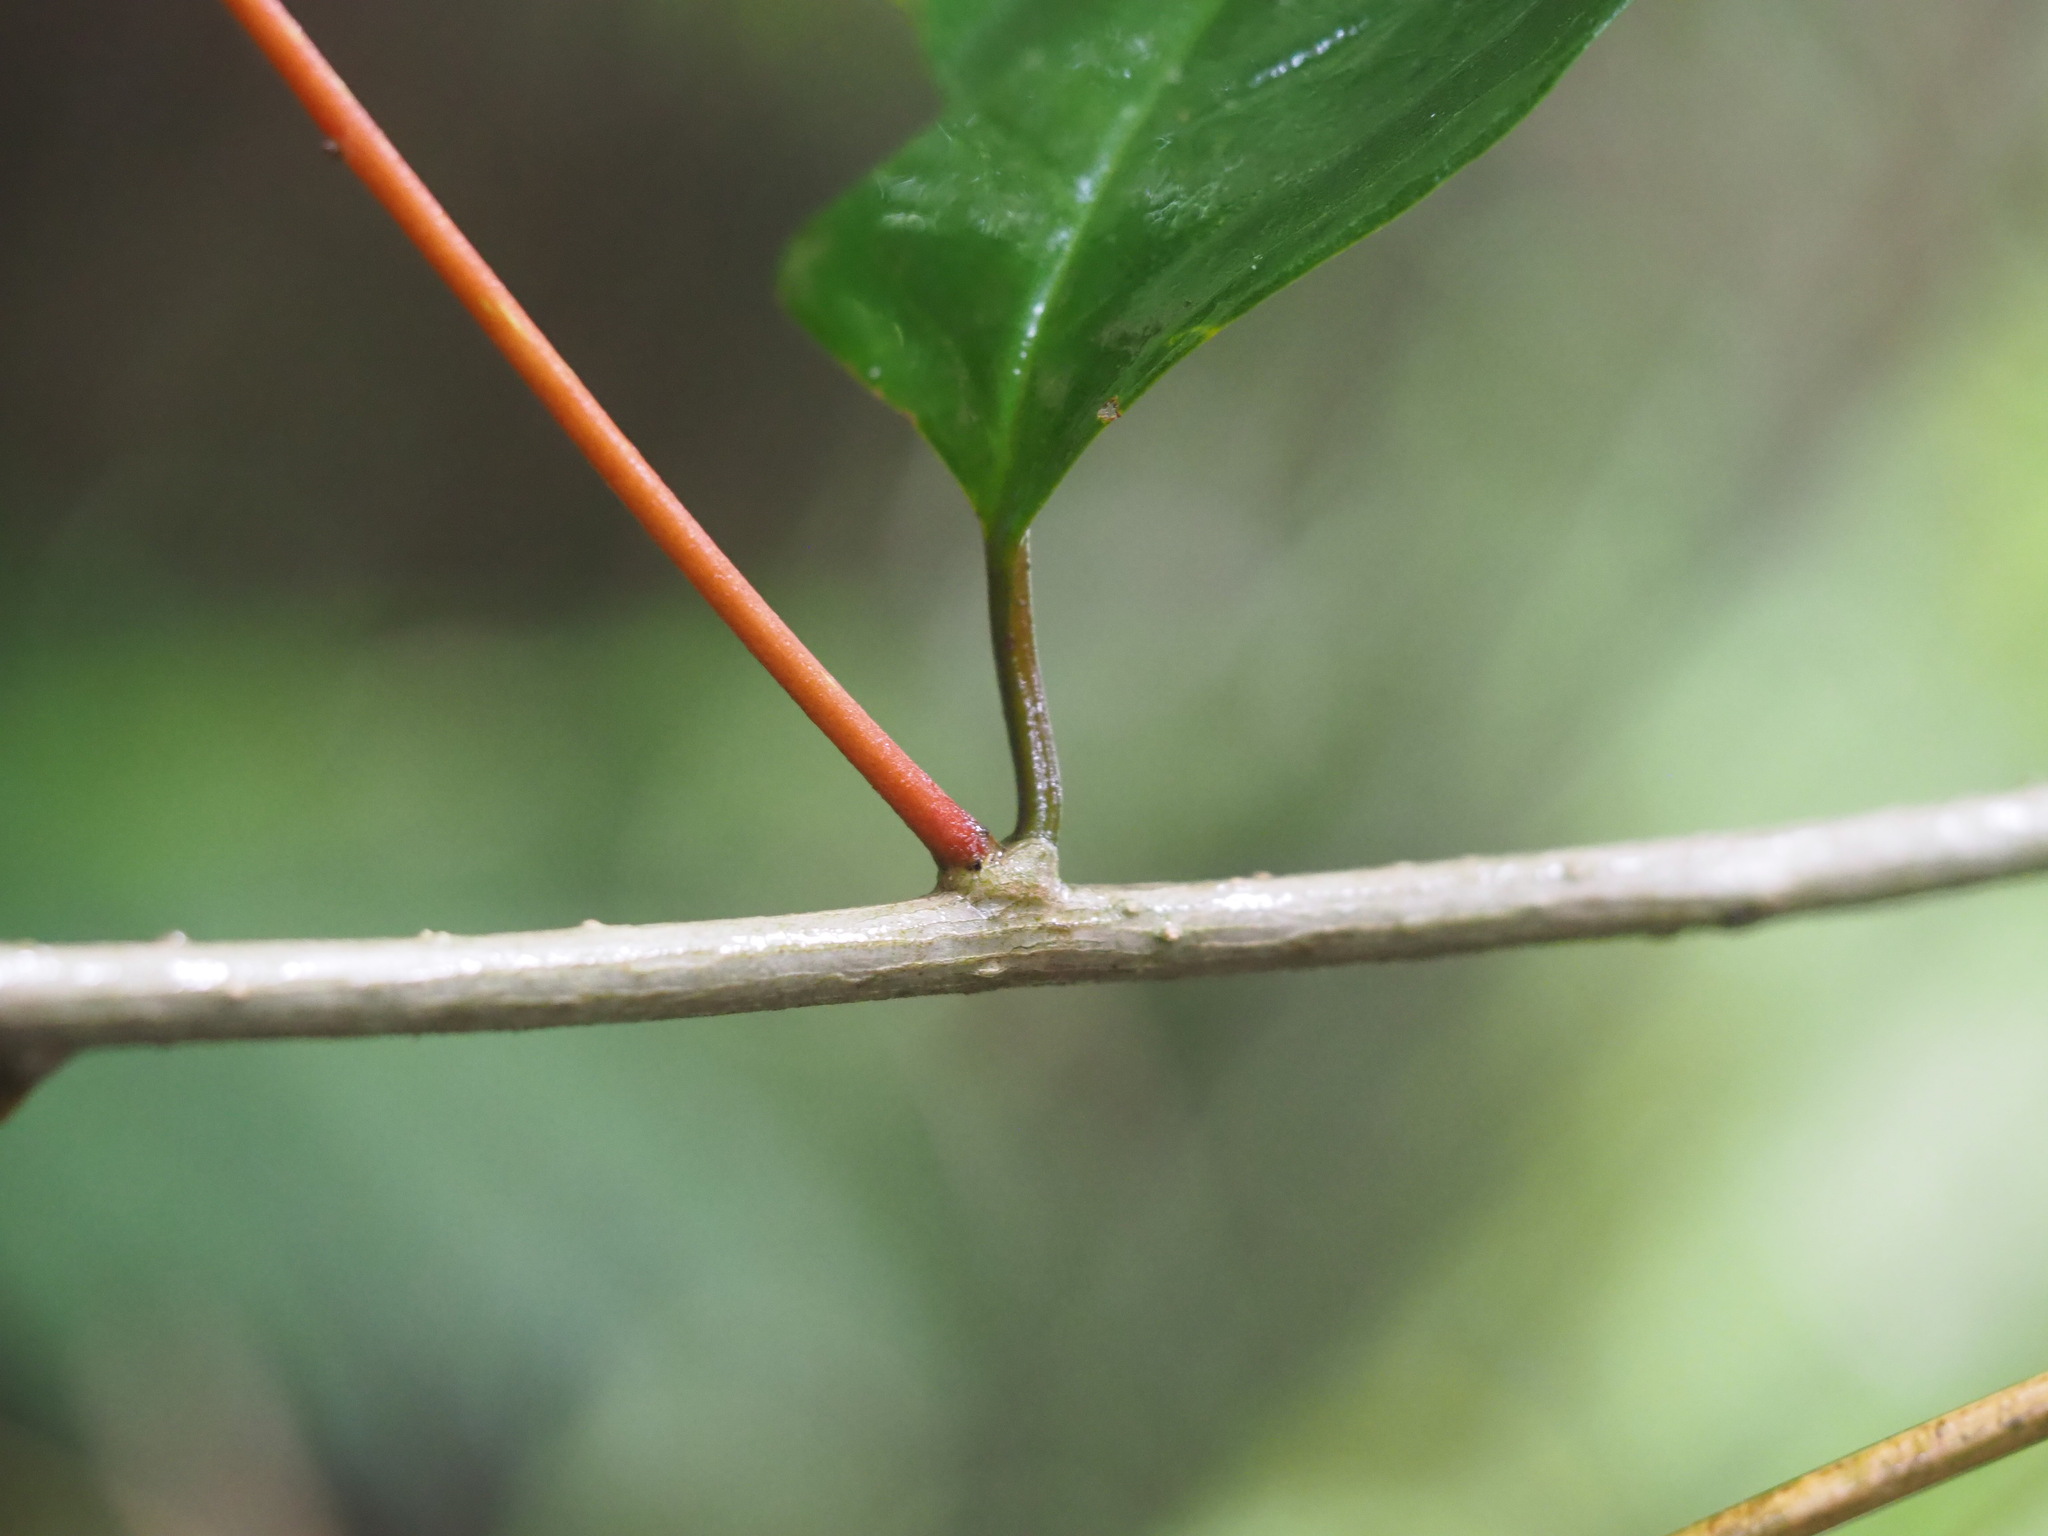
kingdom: Plantae
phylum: Tracheophyta
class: Magnoliopsida
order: Solanales
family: Convolvulaceae
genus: Erycibe
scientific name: Erycibe henryi
